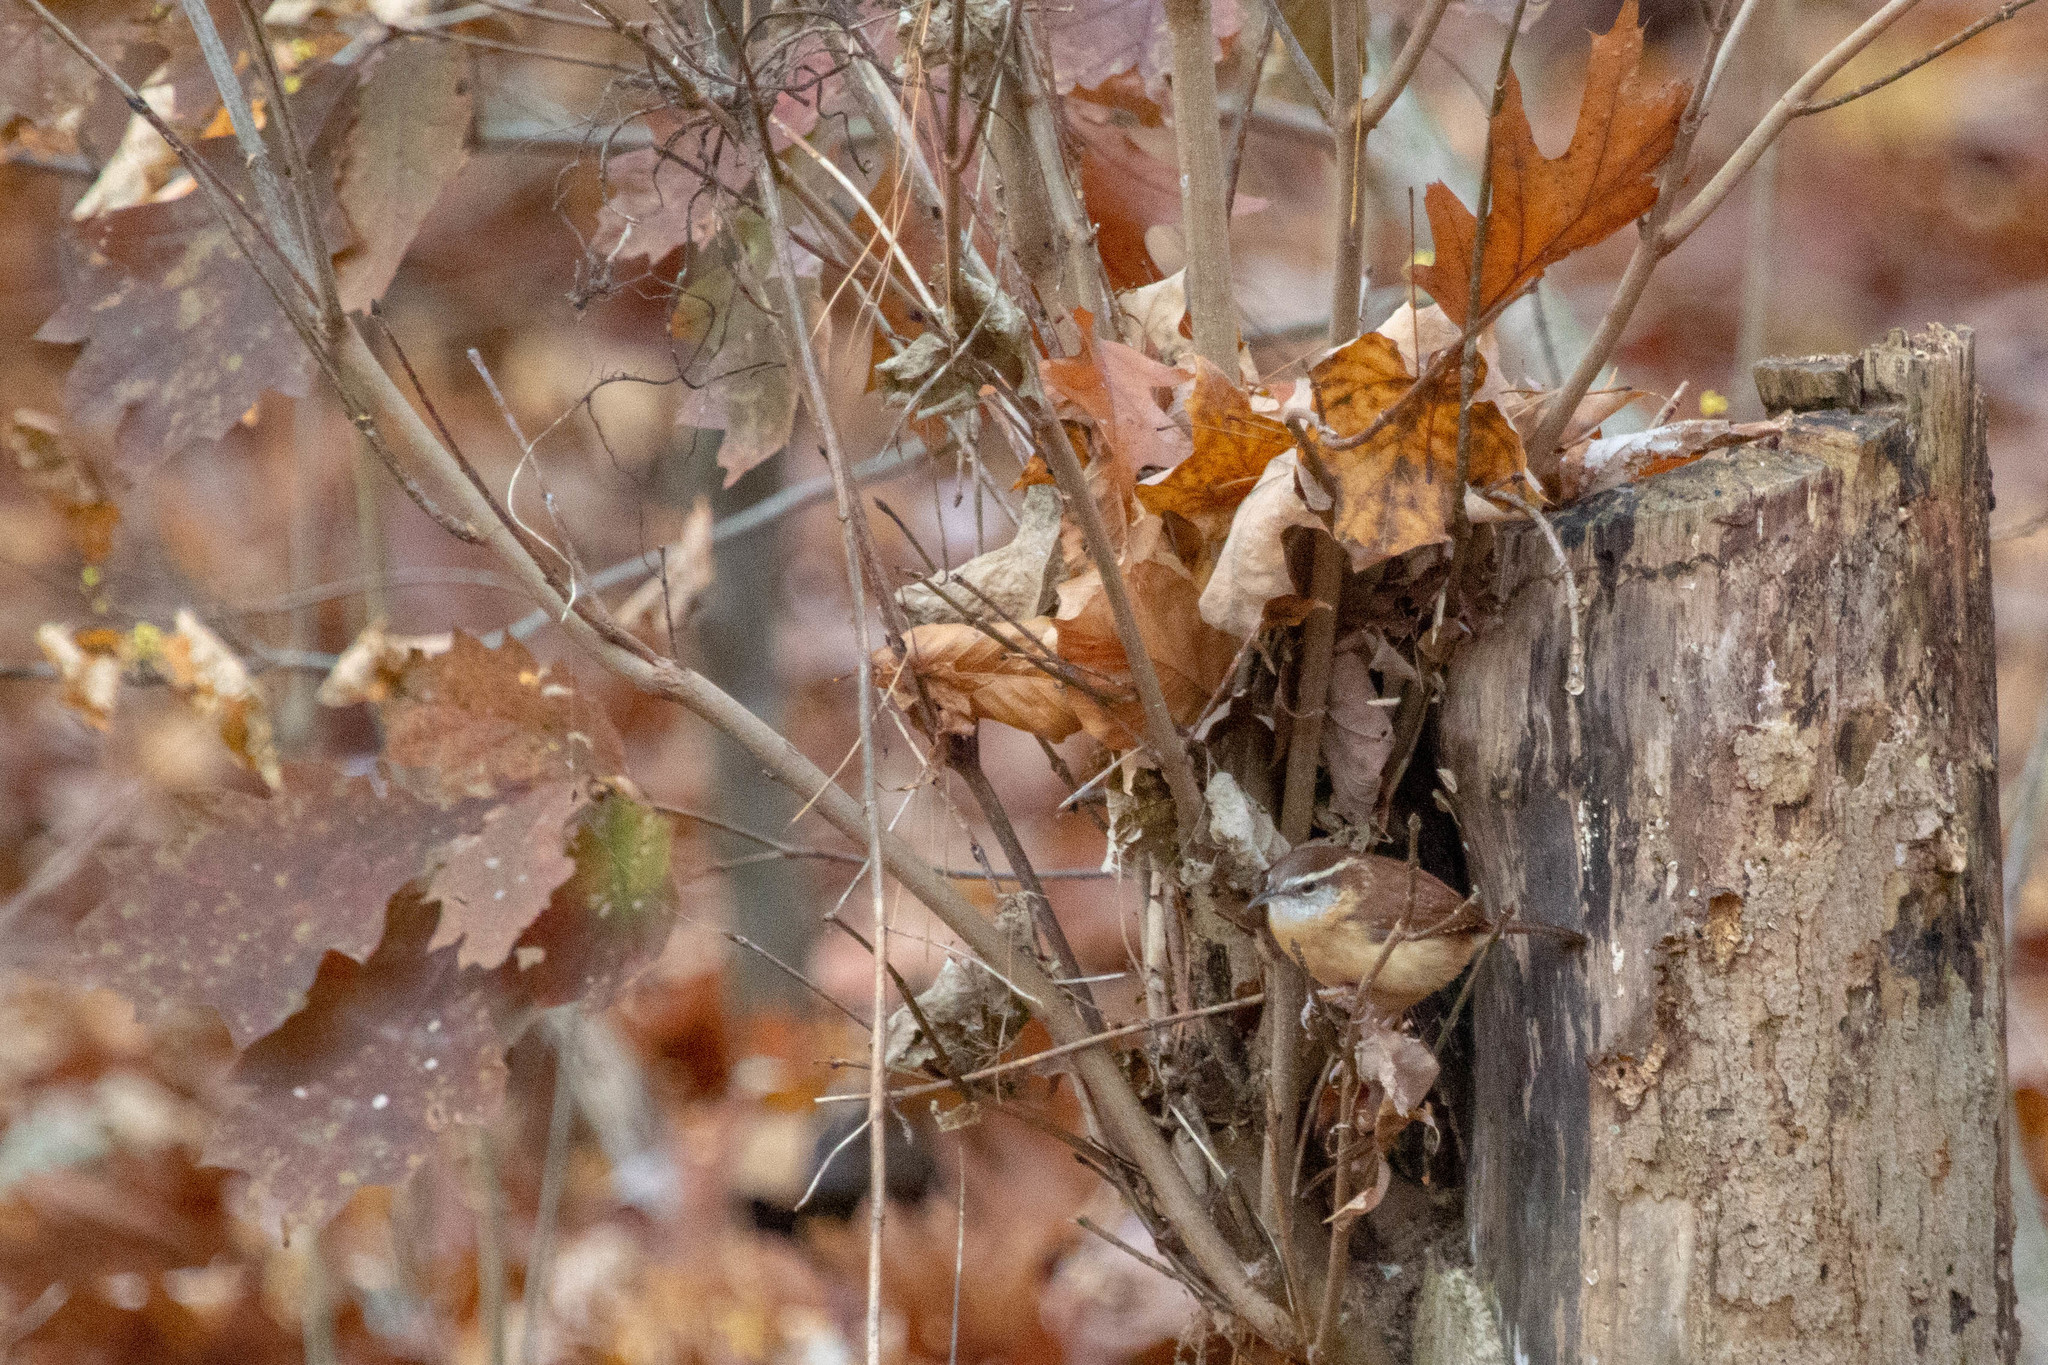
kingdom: Animalia
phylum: Chordata
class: Aves
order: Passeriformes
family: Troglodytidae
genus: Thryothorus
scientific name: Thryothorus ludovicianus
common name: Carolina wren
